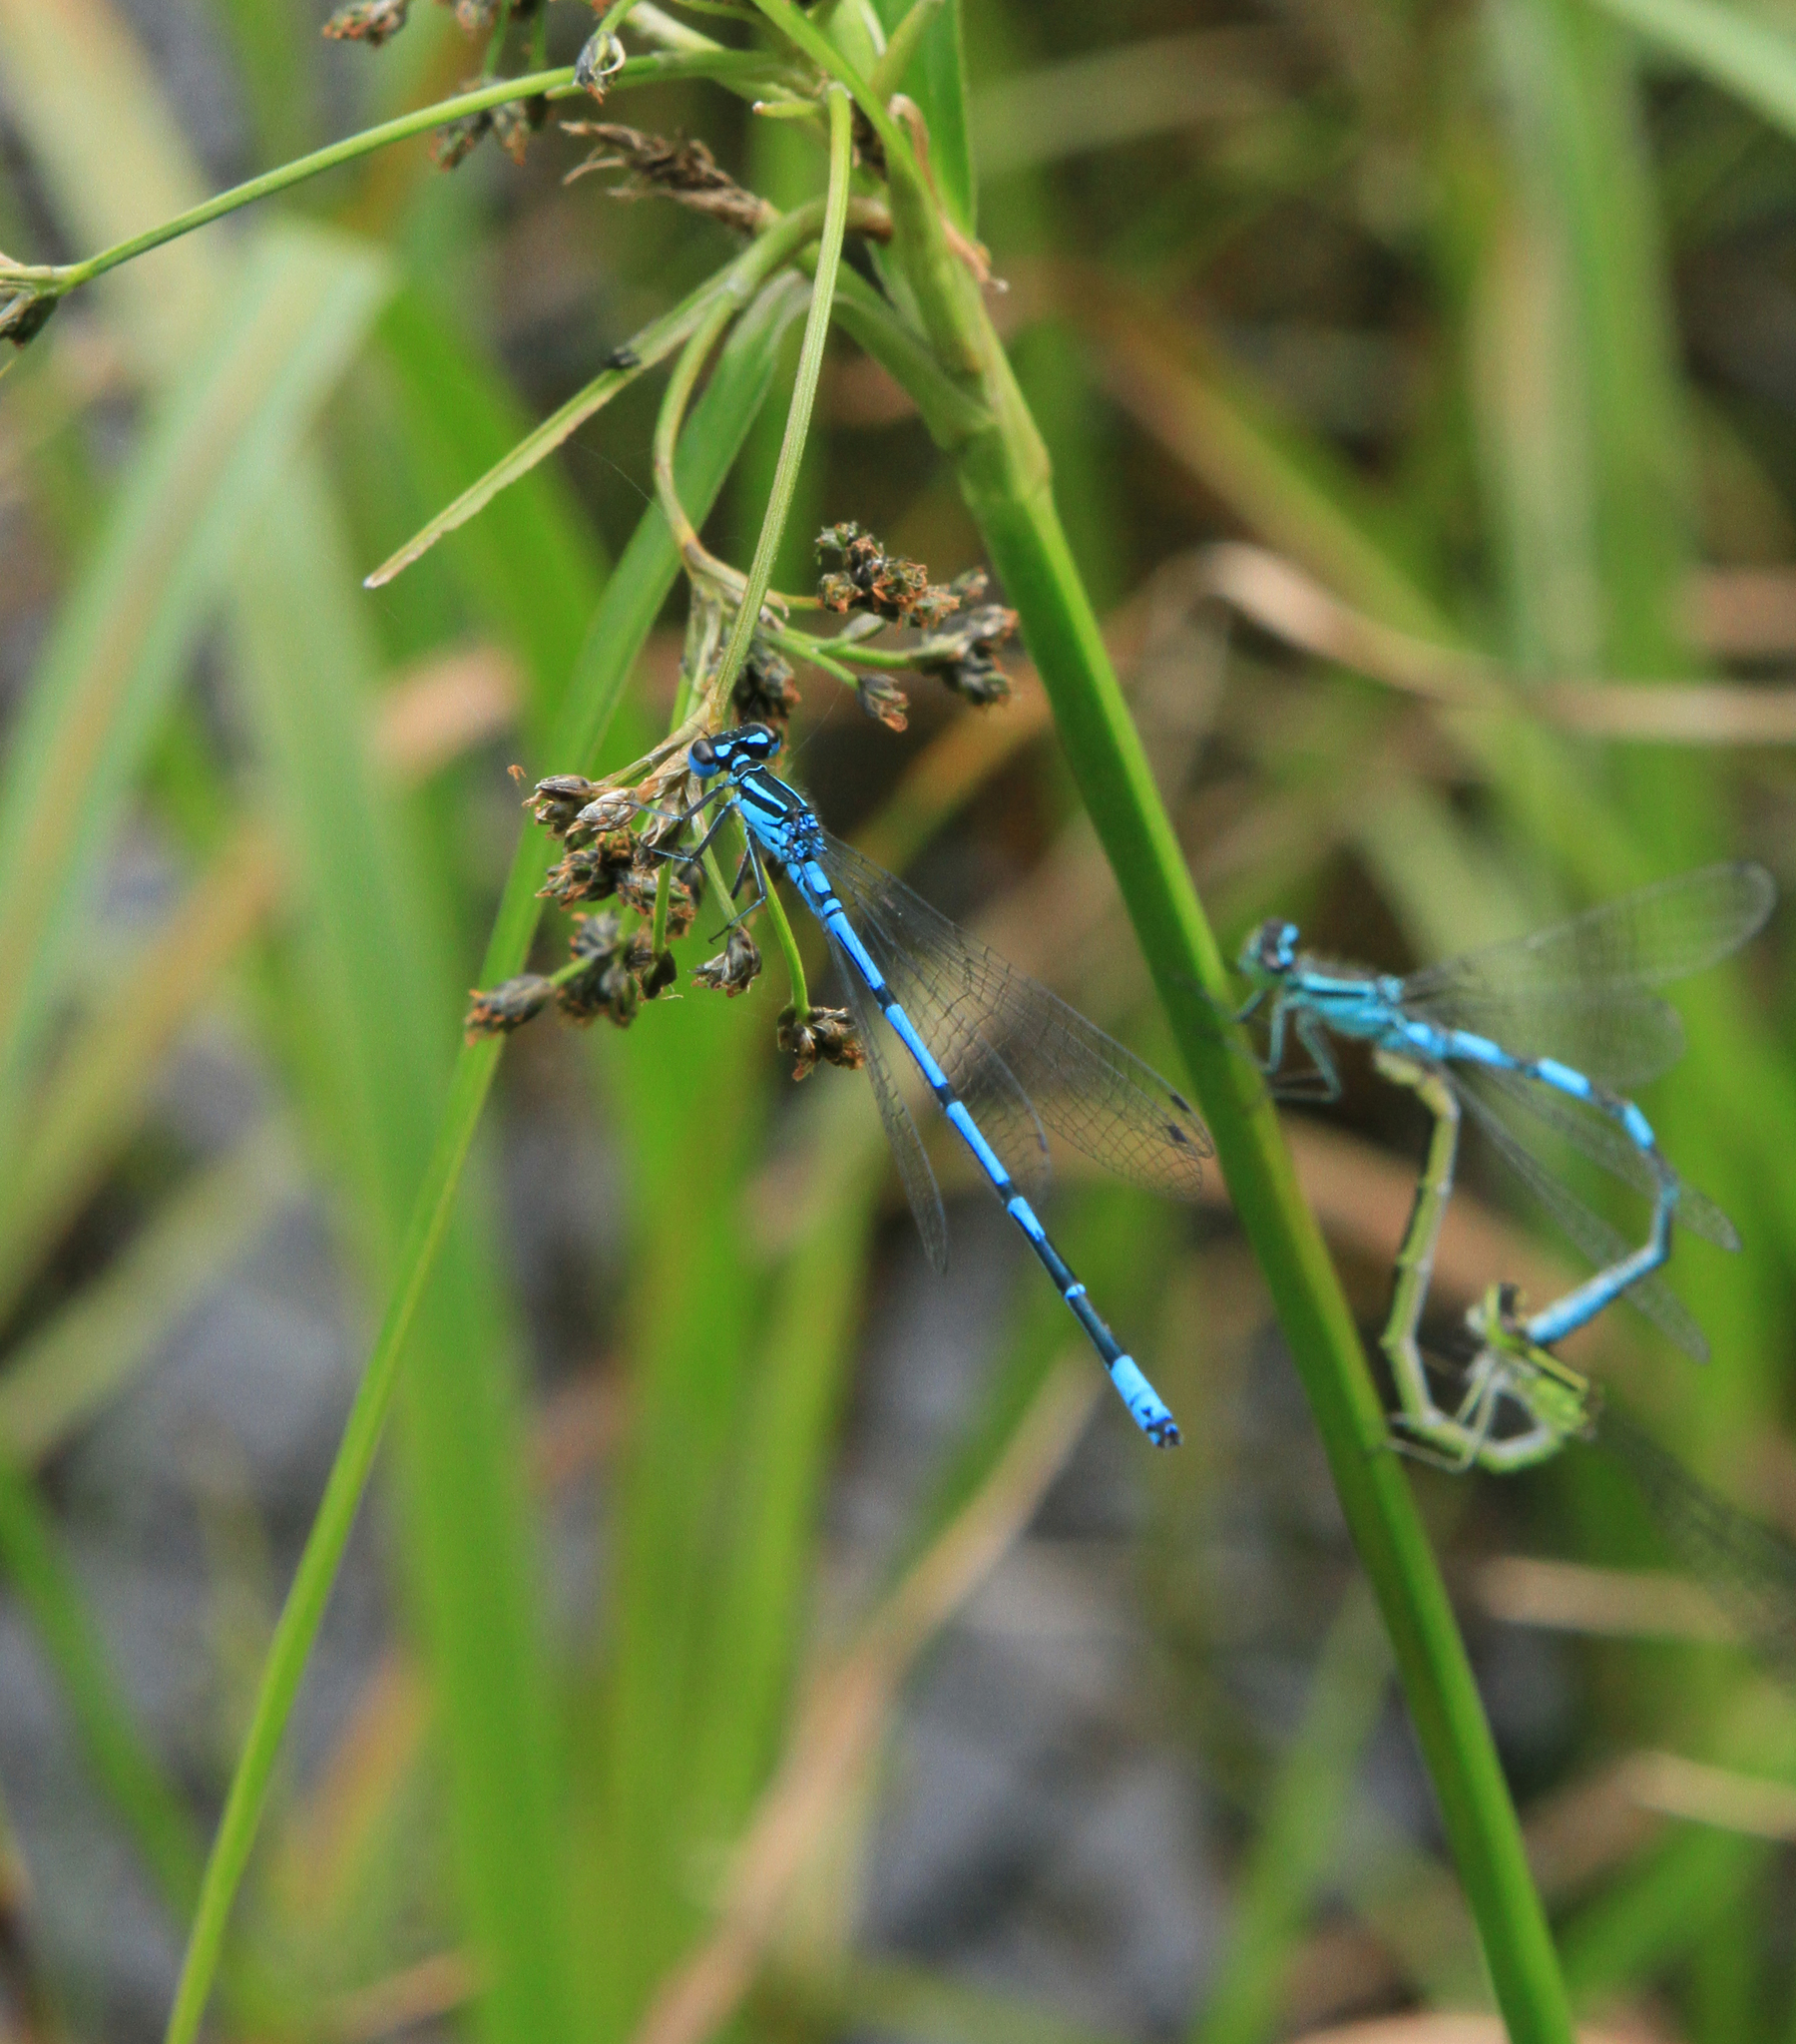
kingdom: Animalia
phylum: Arthropoda
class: Insecta
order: Odonata
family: Coenagrionidae
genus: Coenagrion
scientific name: Coenagrion puella
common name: Azure damselfly
